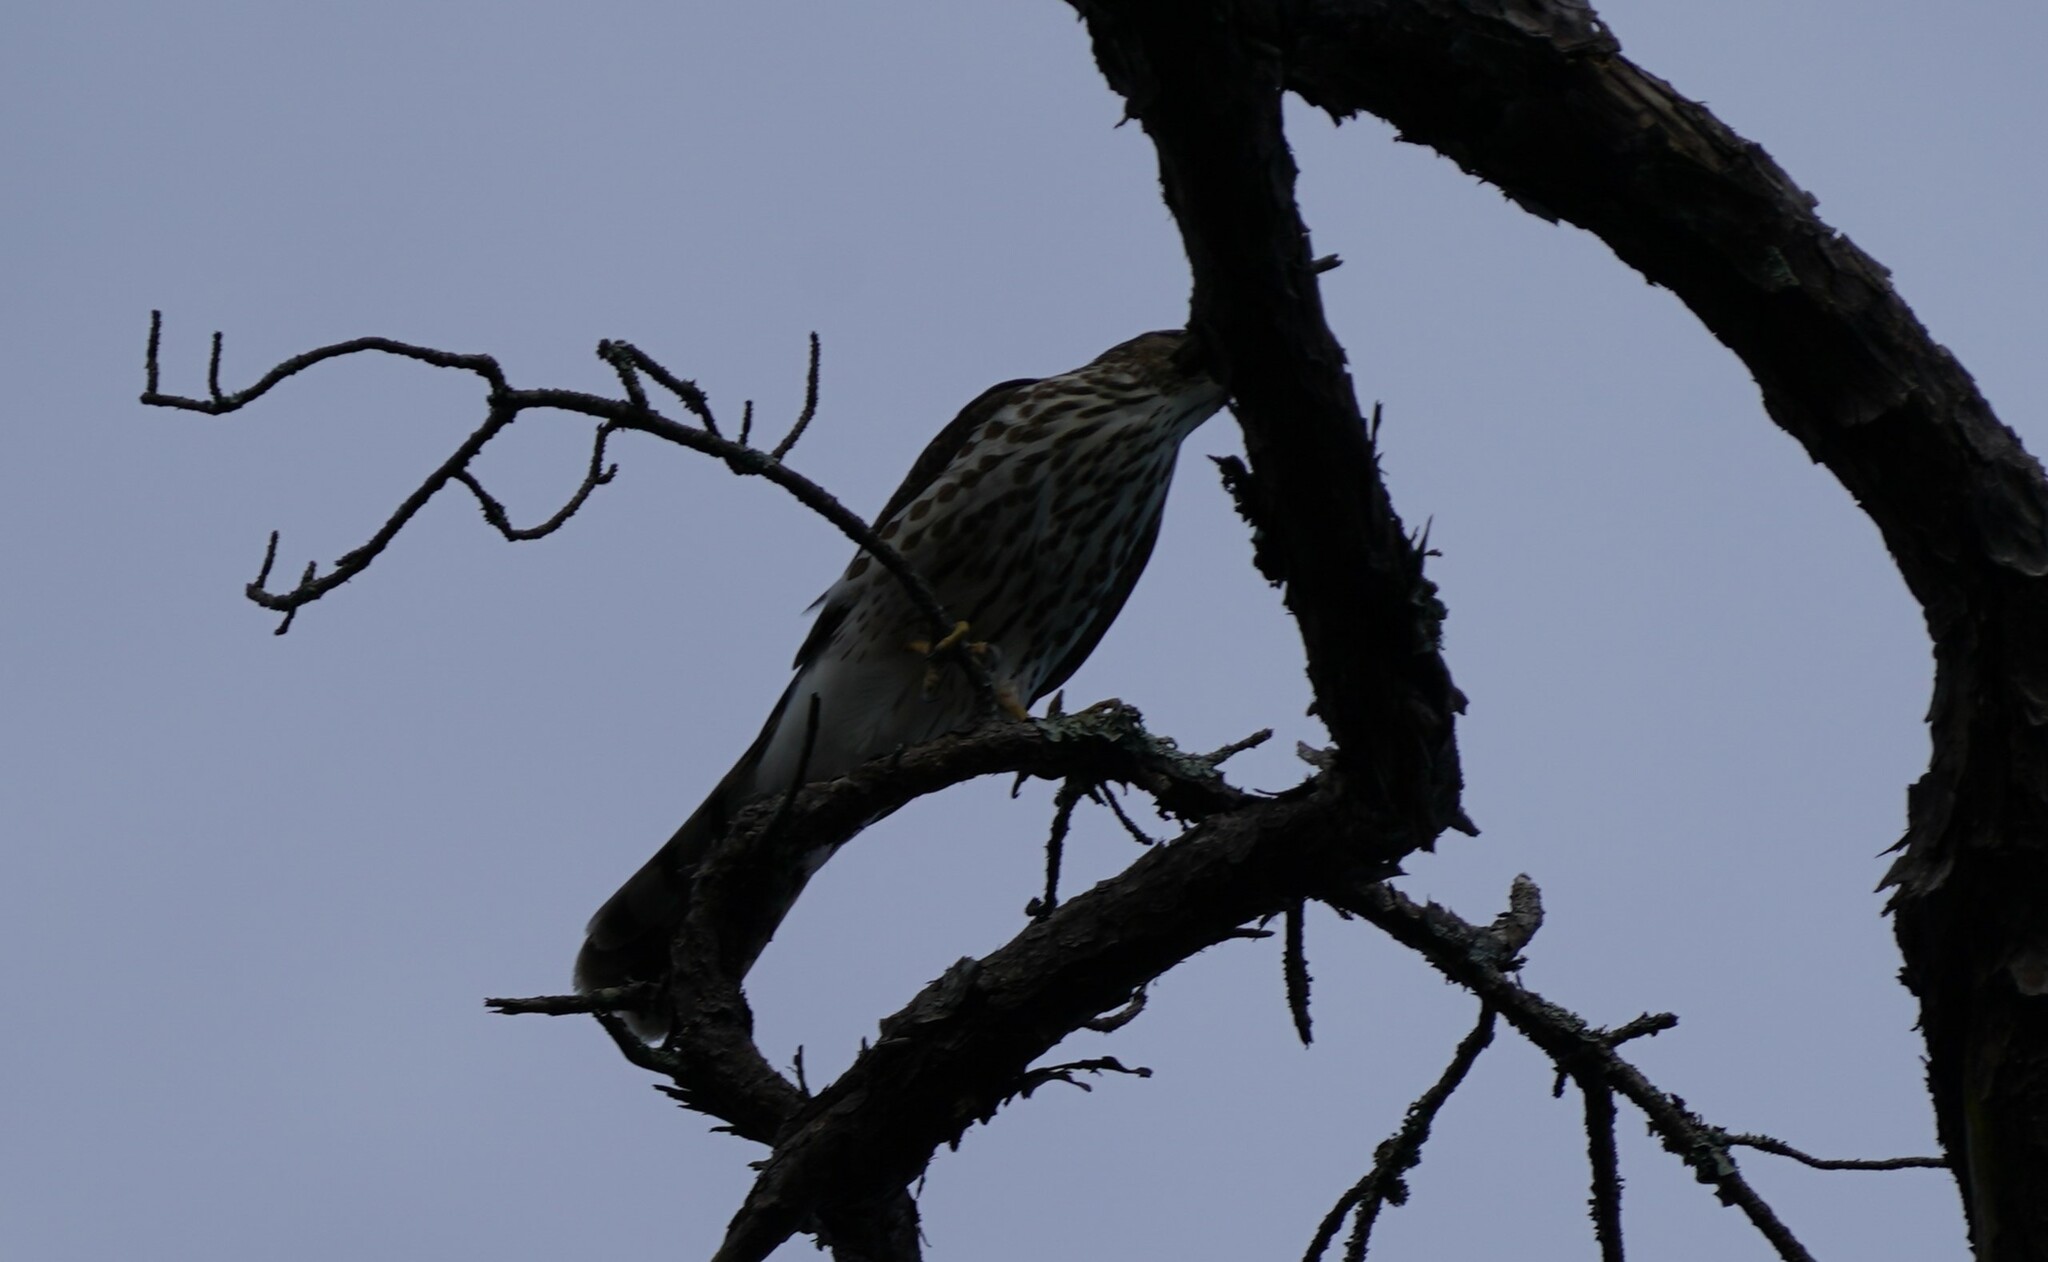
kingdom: Animalia
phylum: Chordata
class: Aves
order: Accipitriformes
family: Accipitridae
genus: Accipiter
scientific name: Accipiter cooperii
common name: Cooper's hawk
